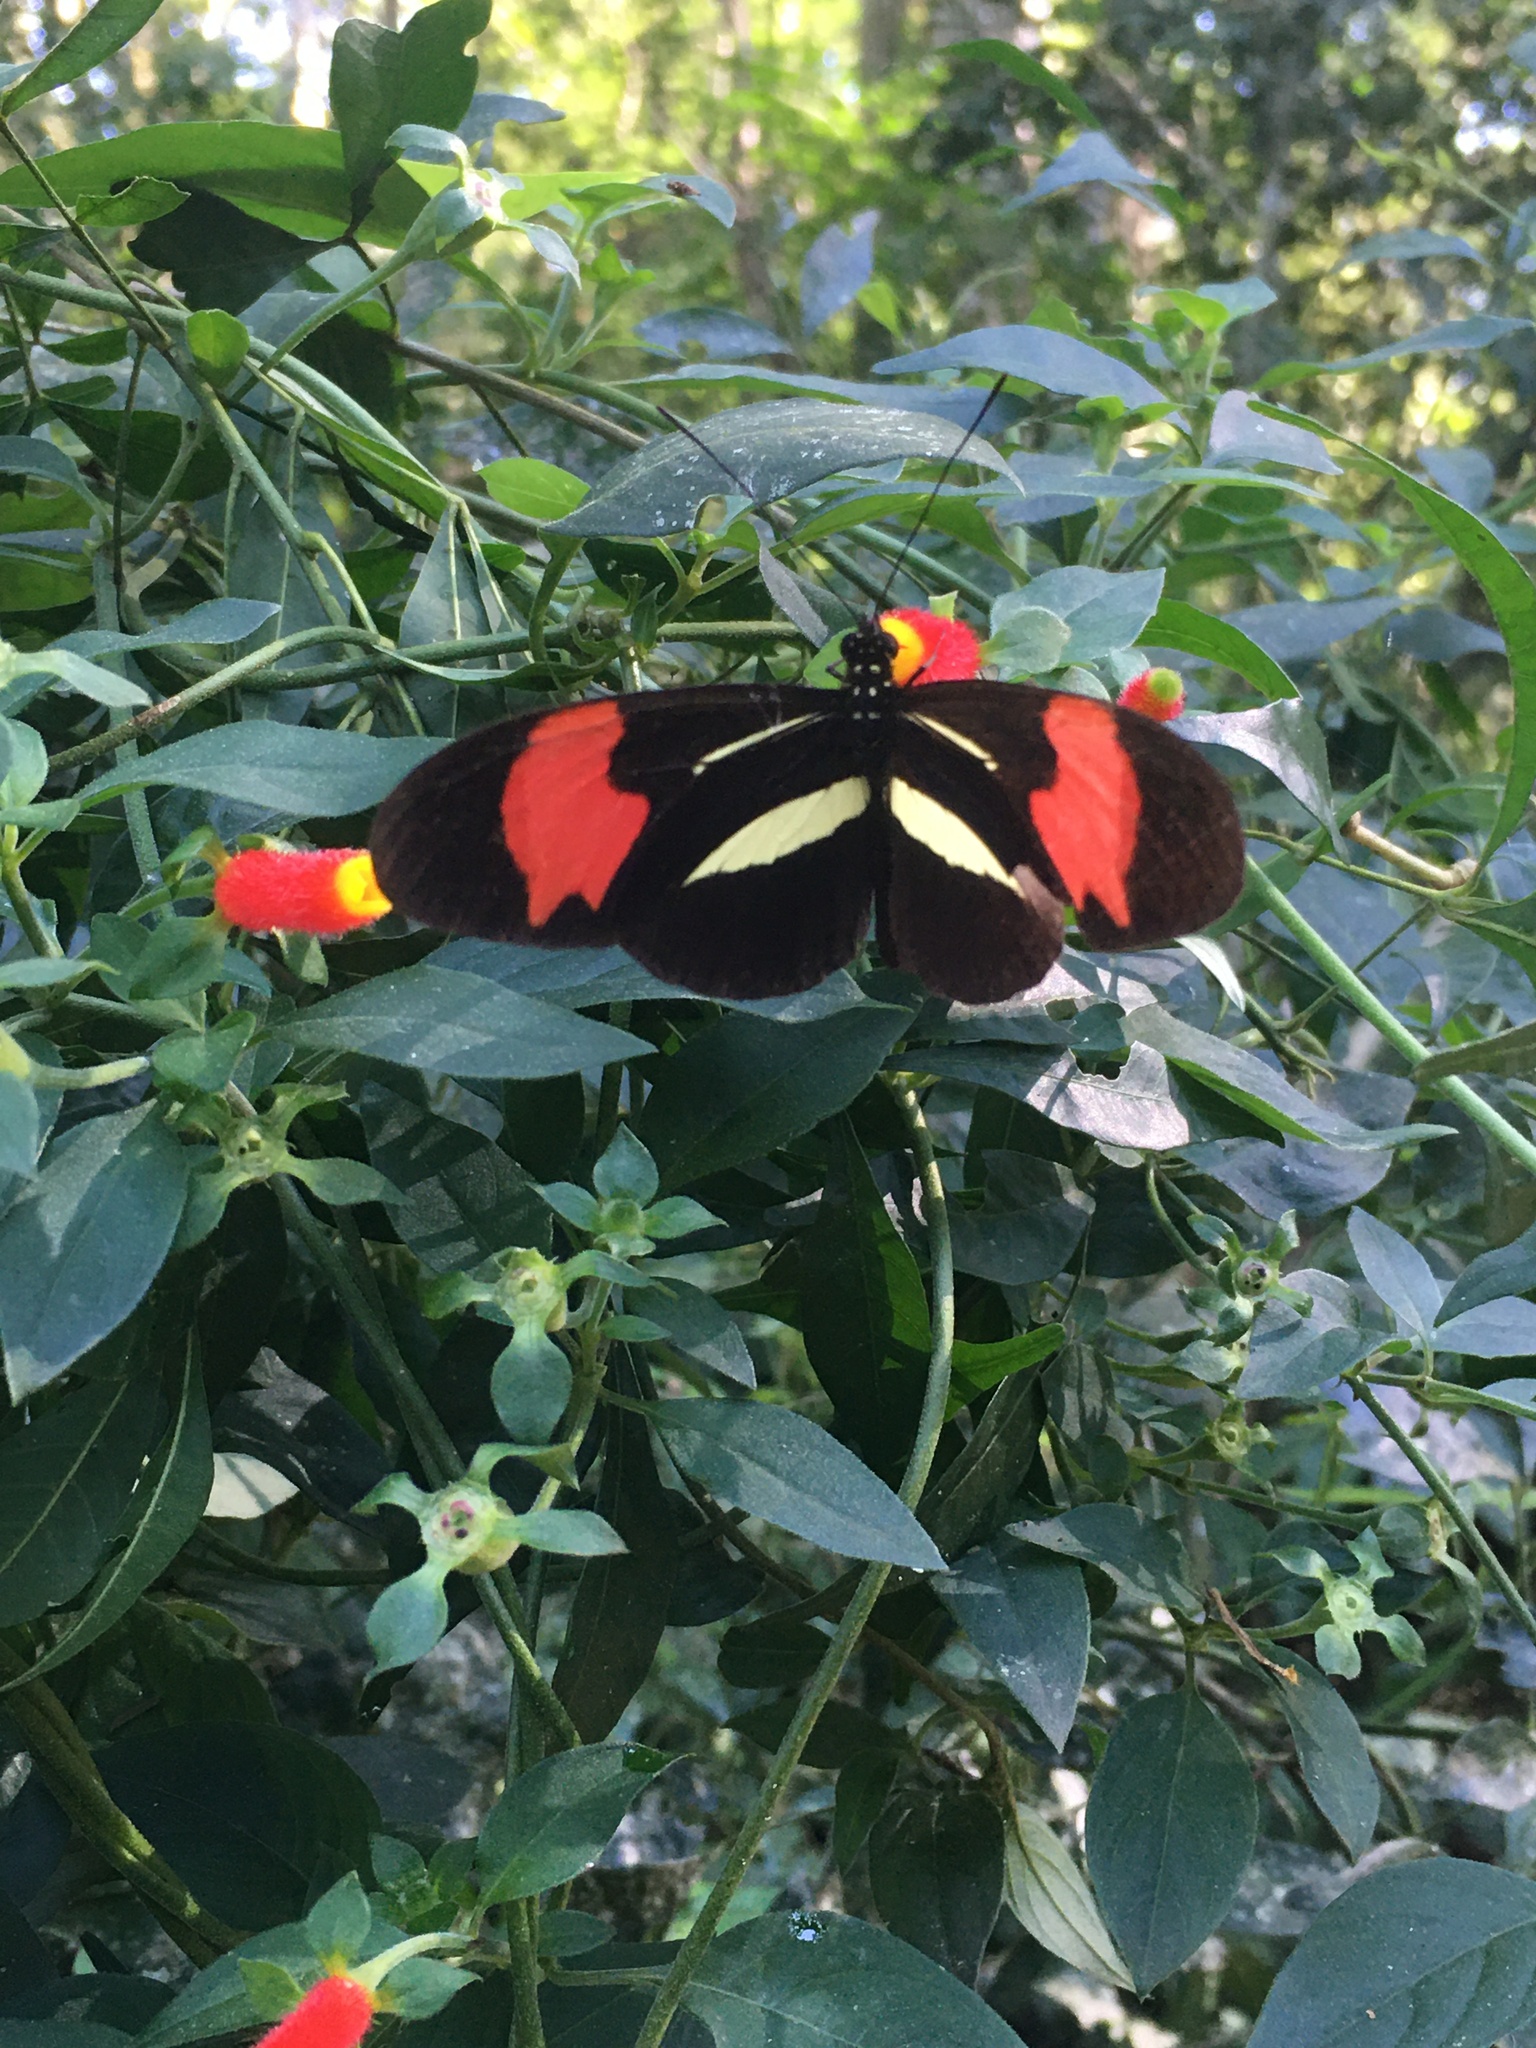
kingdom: Animalia
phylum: Arthropoda
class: Insecta
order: Lepidoptera
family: Nymphalidae
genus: Heliconius
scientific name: Heliconius erato
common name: Common patch longwing
